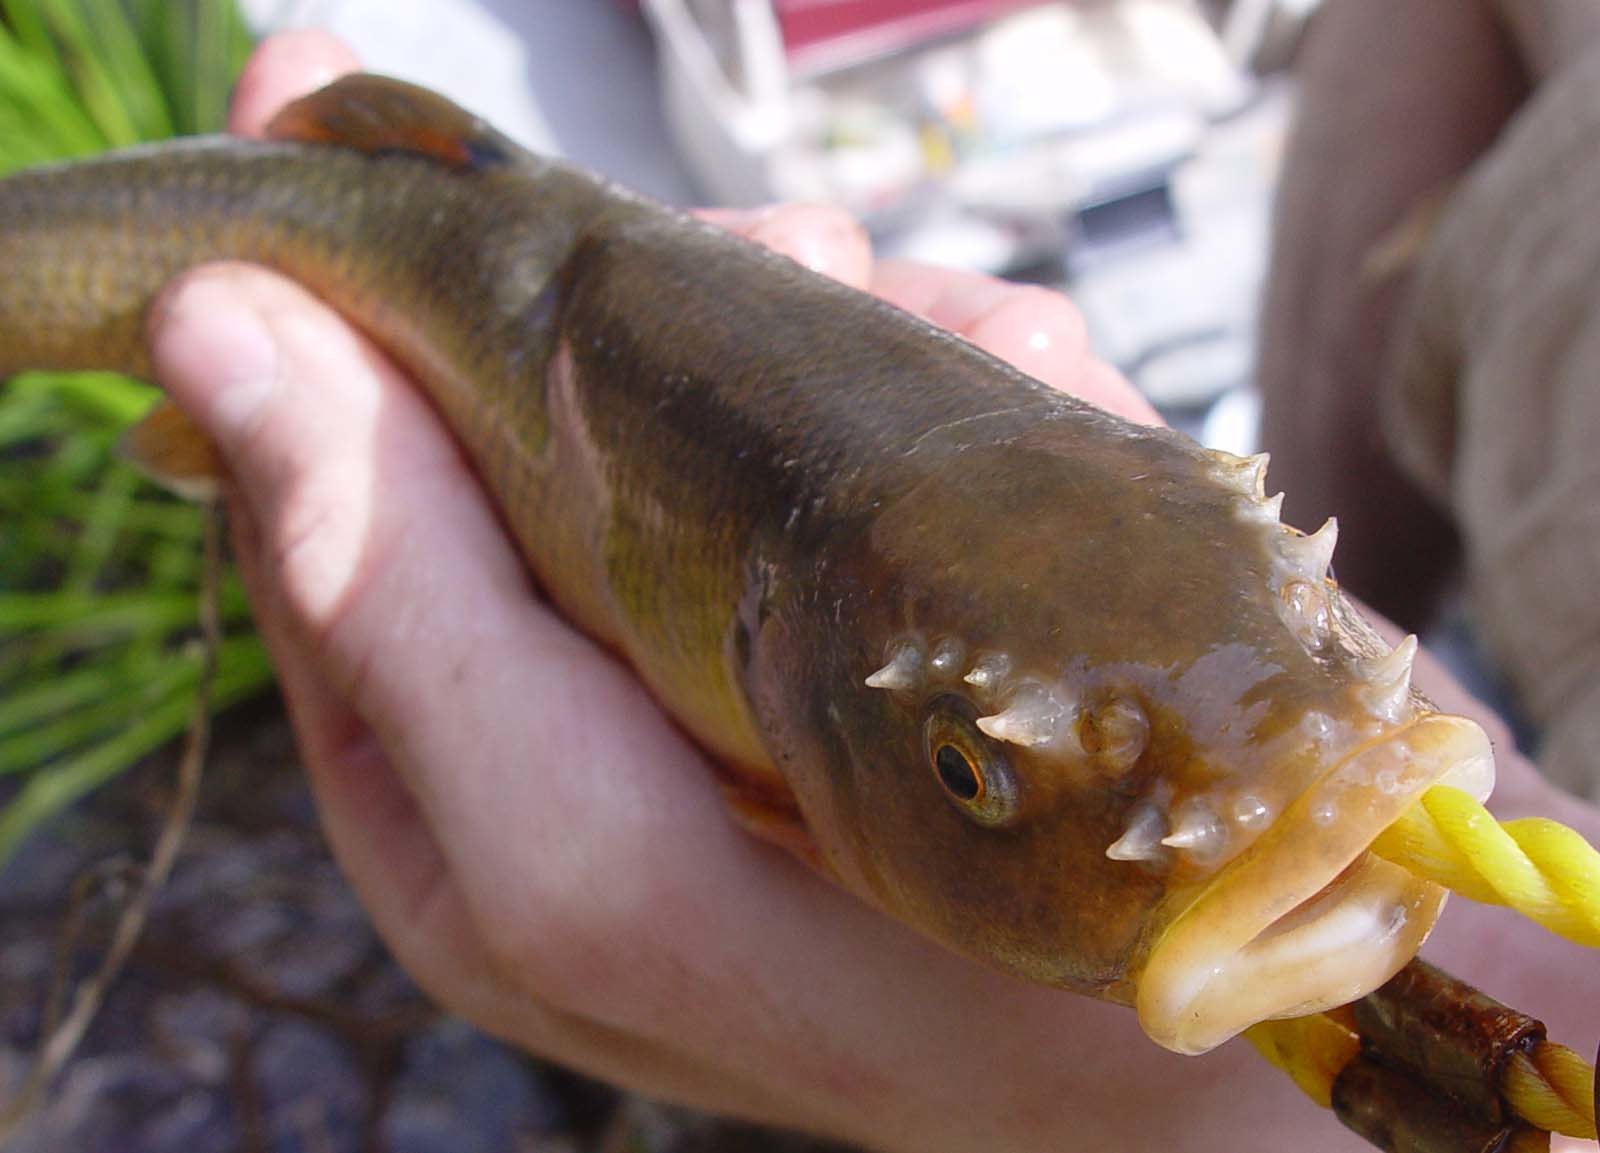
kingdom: Animalia
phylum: Chordata
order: Cypriniformes
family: Cyprinidae
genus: Semotilus
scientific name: Semotilus atromaculatus
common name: Creek chub
